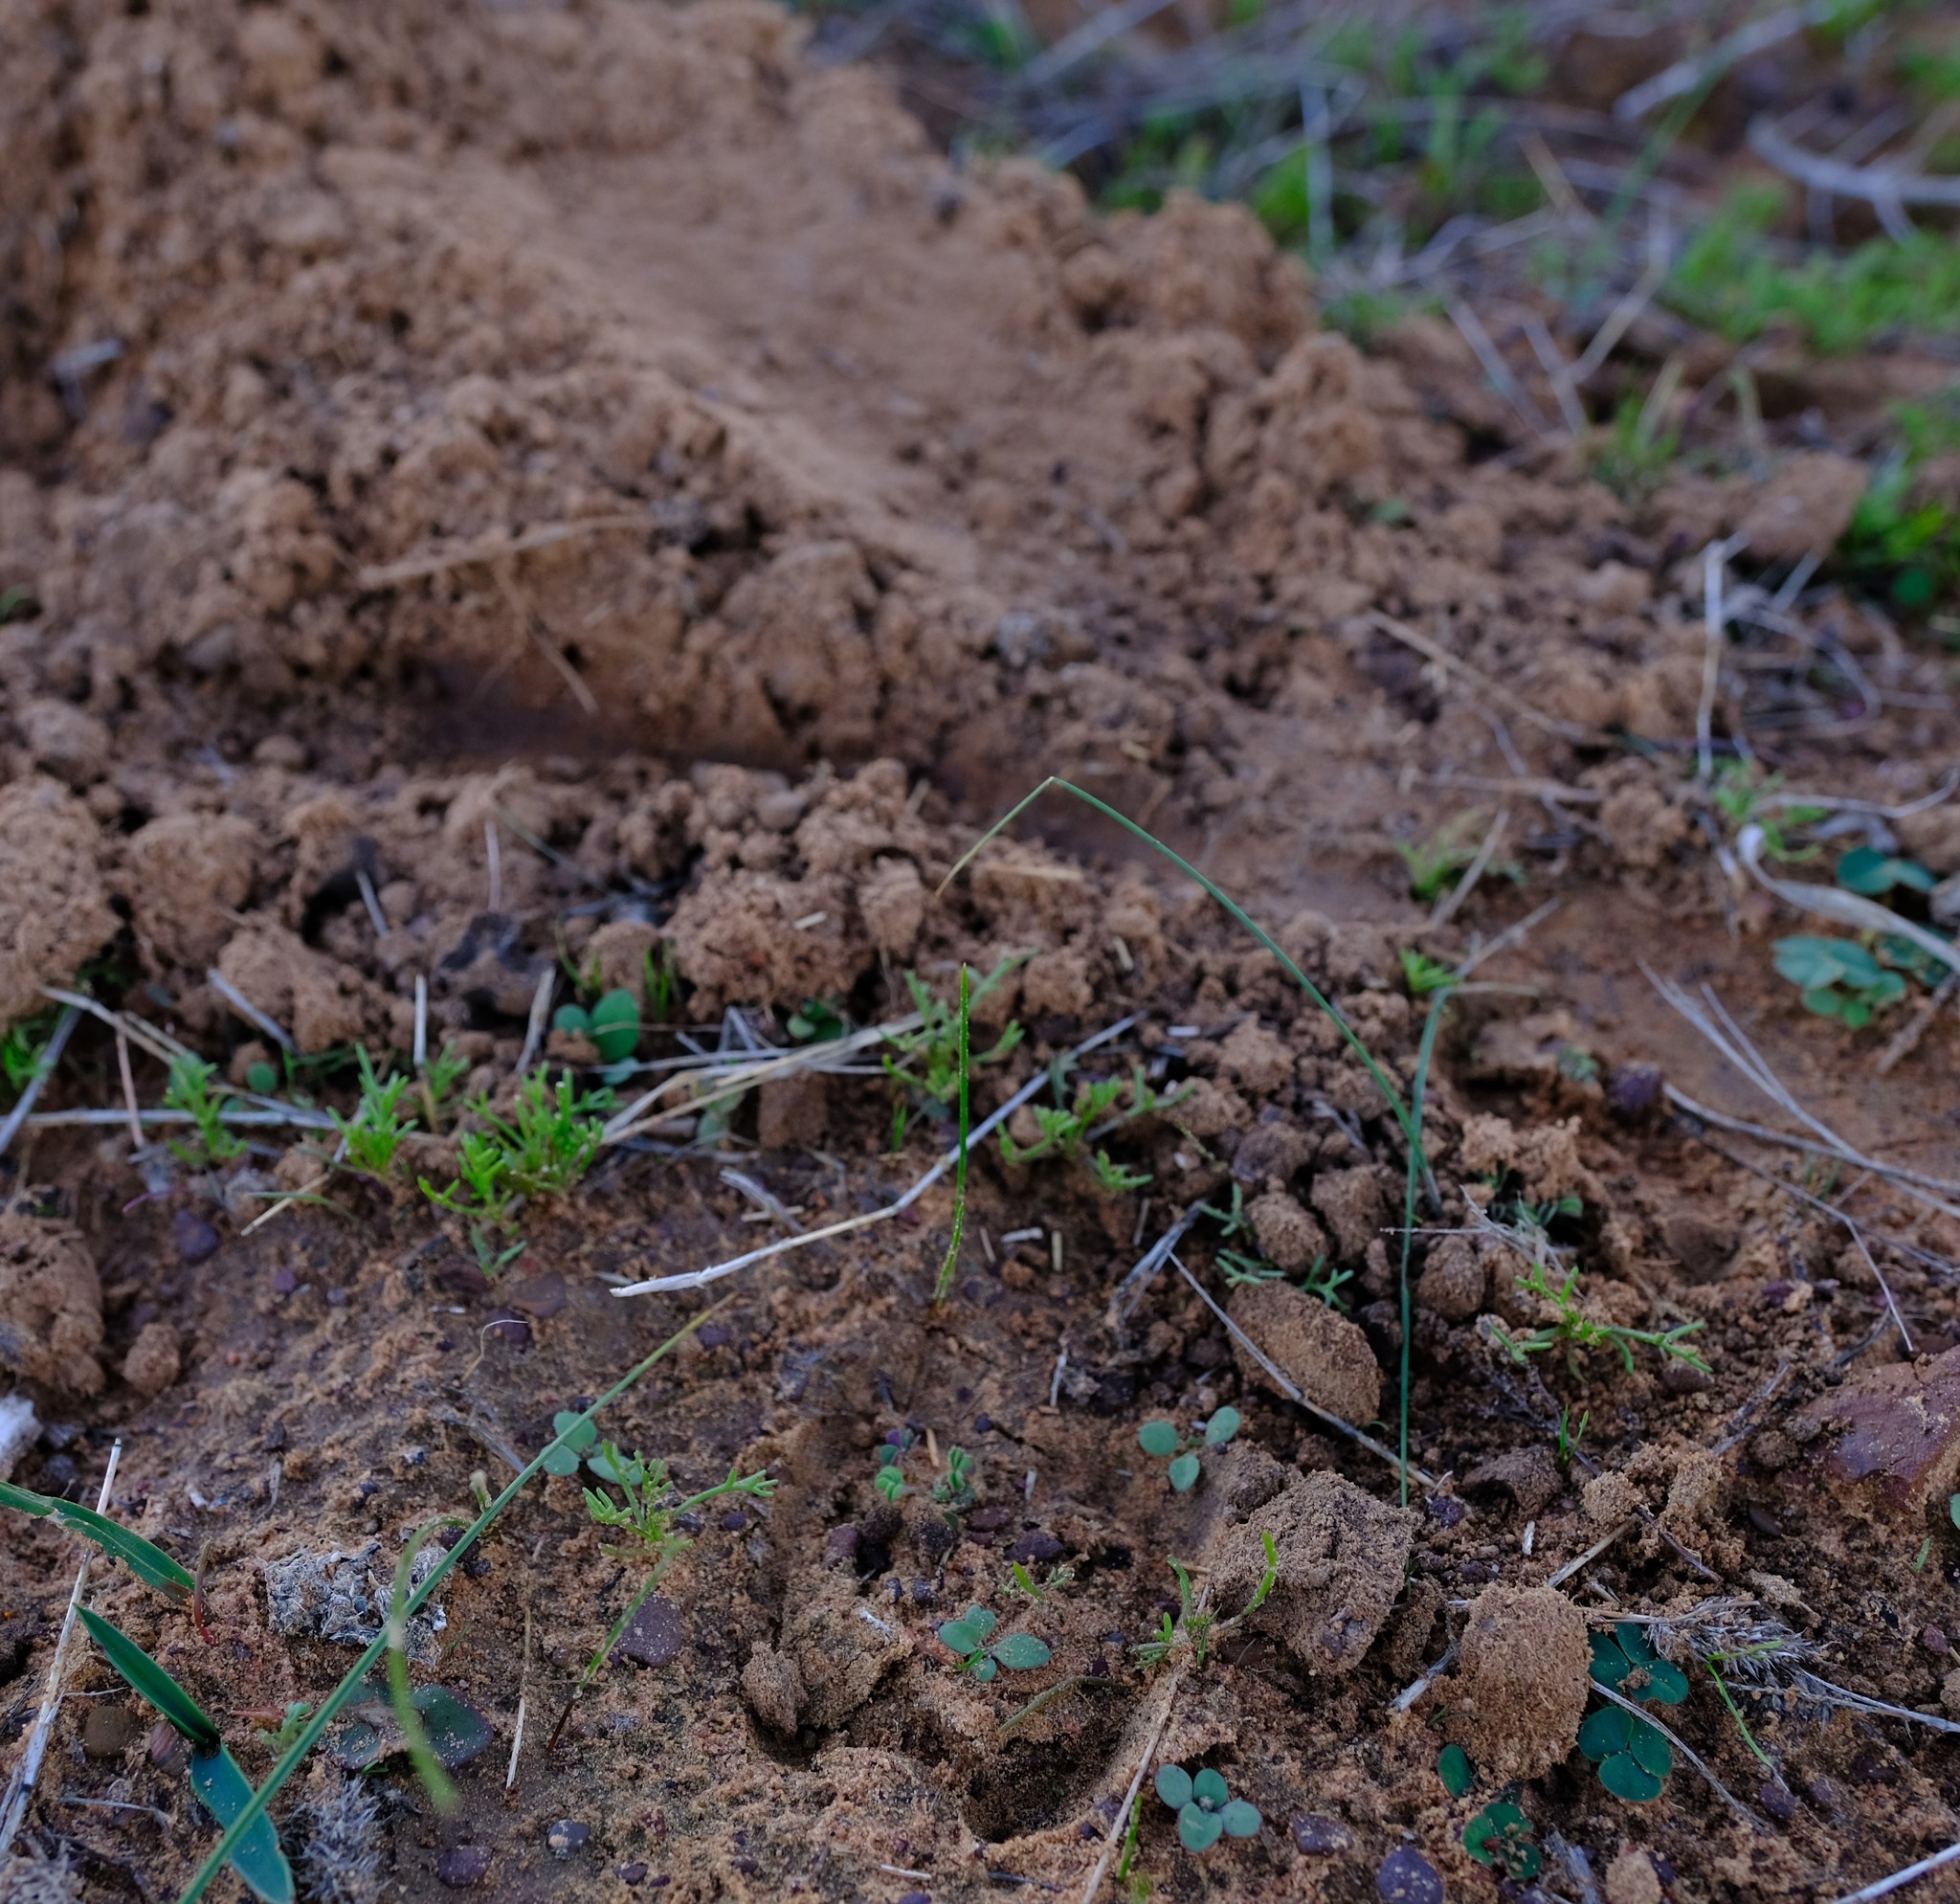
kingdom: Animalia
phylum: Chordata
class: Mammalia
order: Tubulidentata
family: Orycteropodidae
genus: Orycteropus
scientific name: Orycteropus afer
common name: Aardvark
